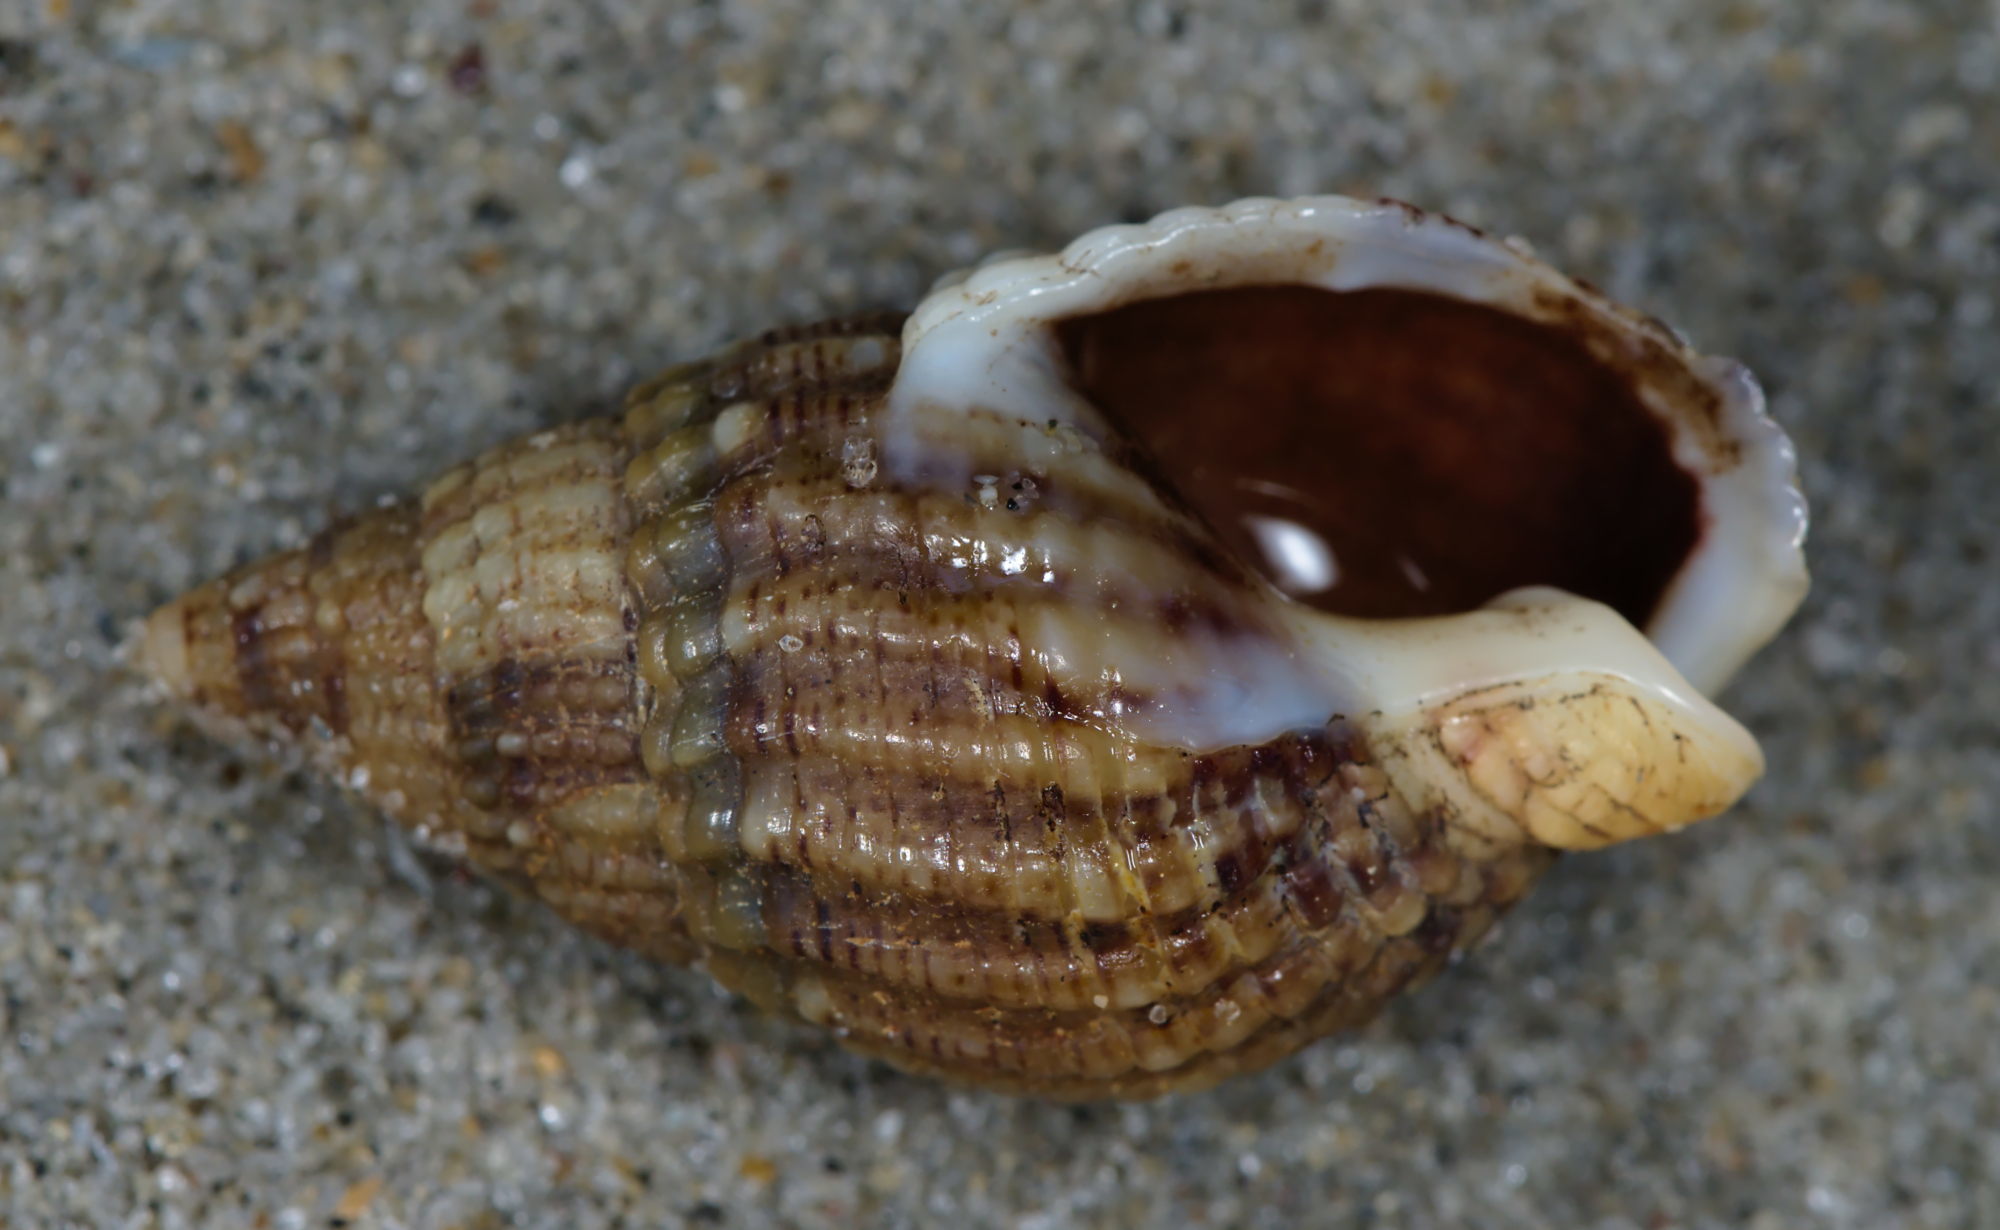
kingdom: Animalia
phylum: Mollusca
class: Gastropoda
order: Neogastropoda
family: Nassariidae
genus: Tritia
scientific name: Tritia reticulata
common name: Netted dog whelk
